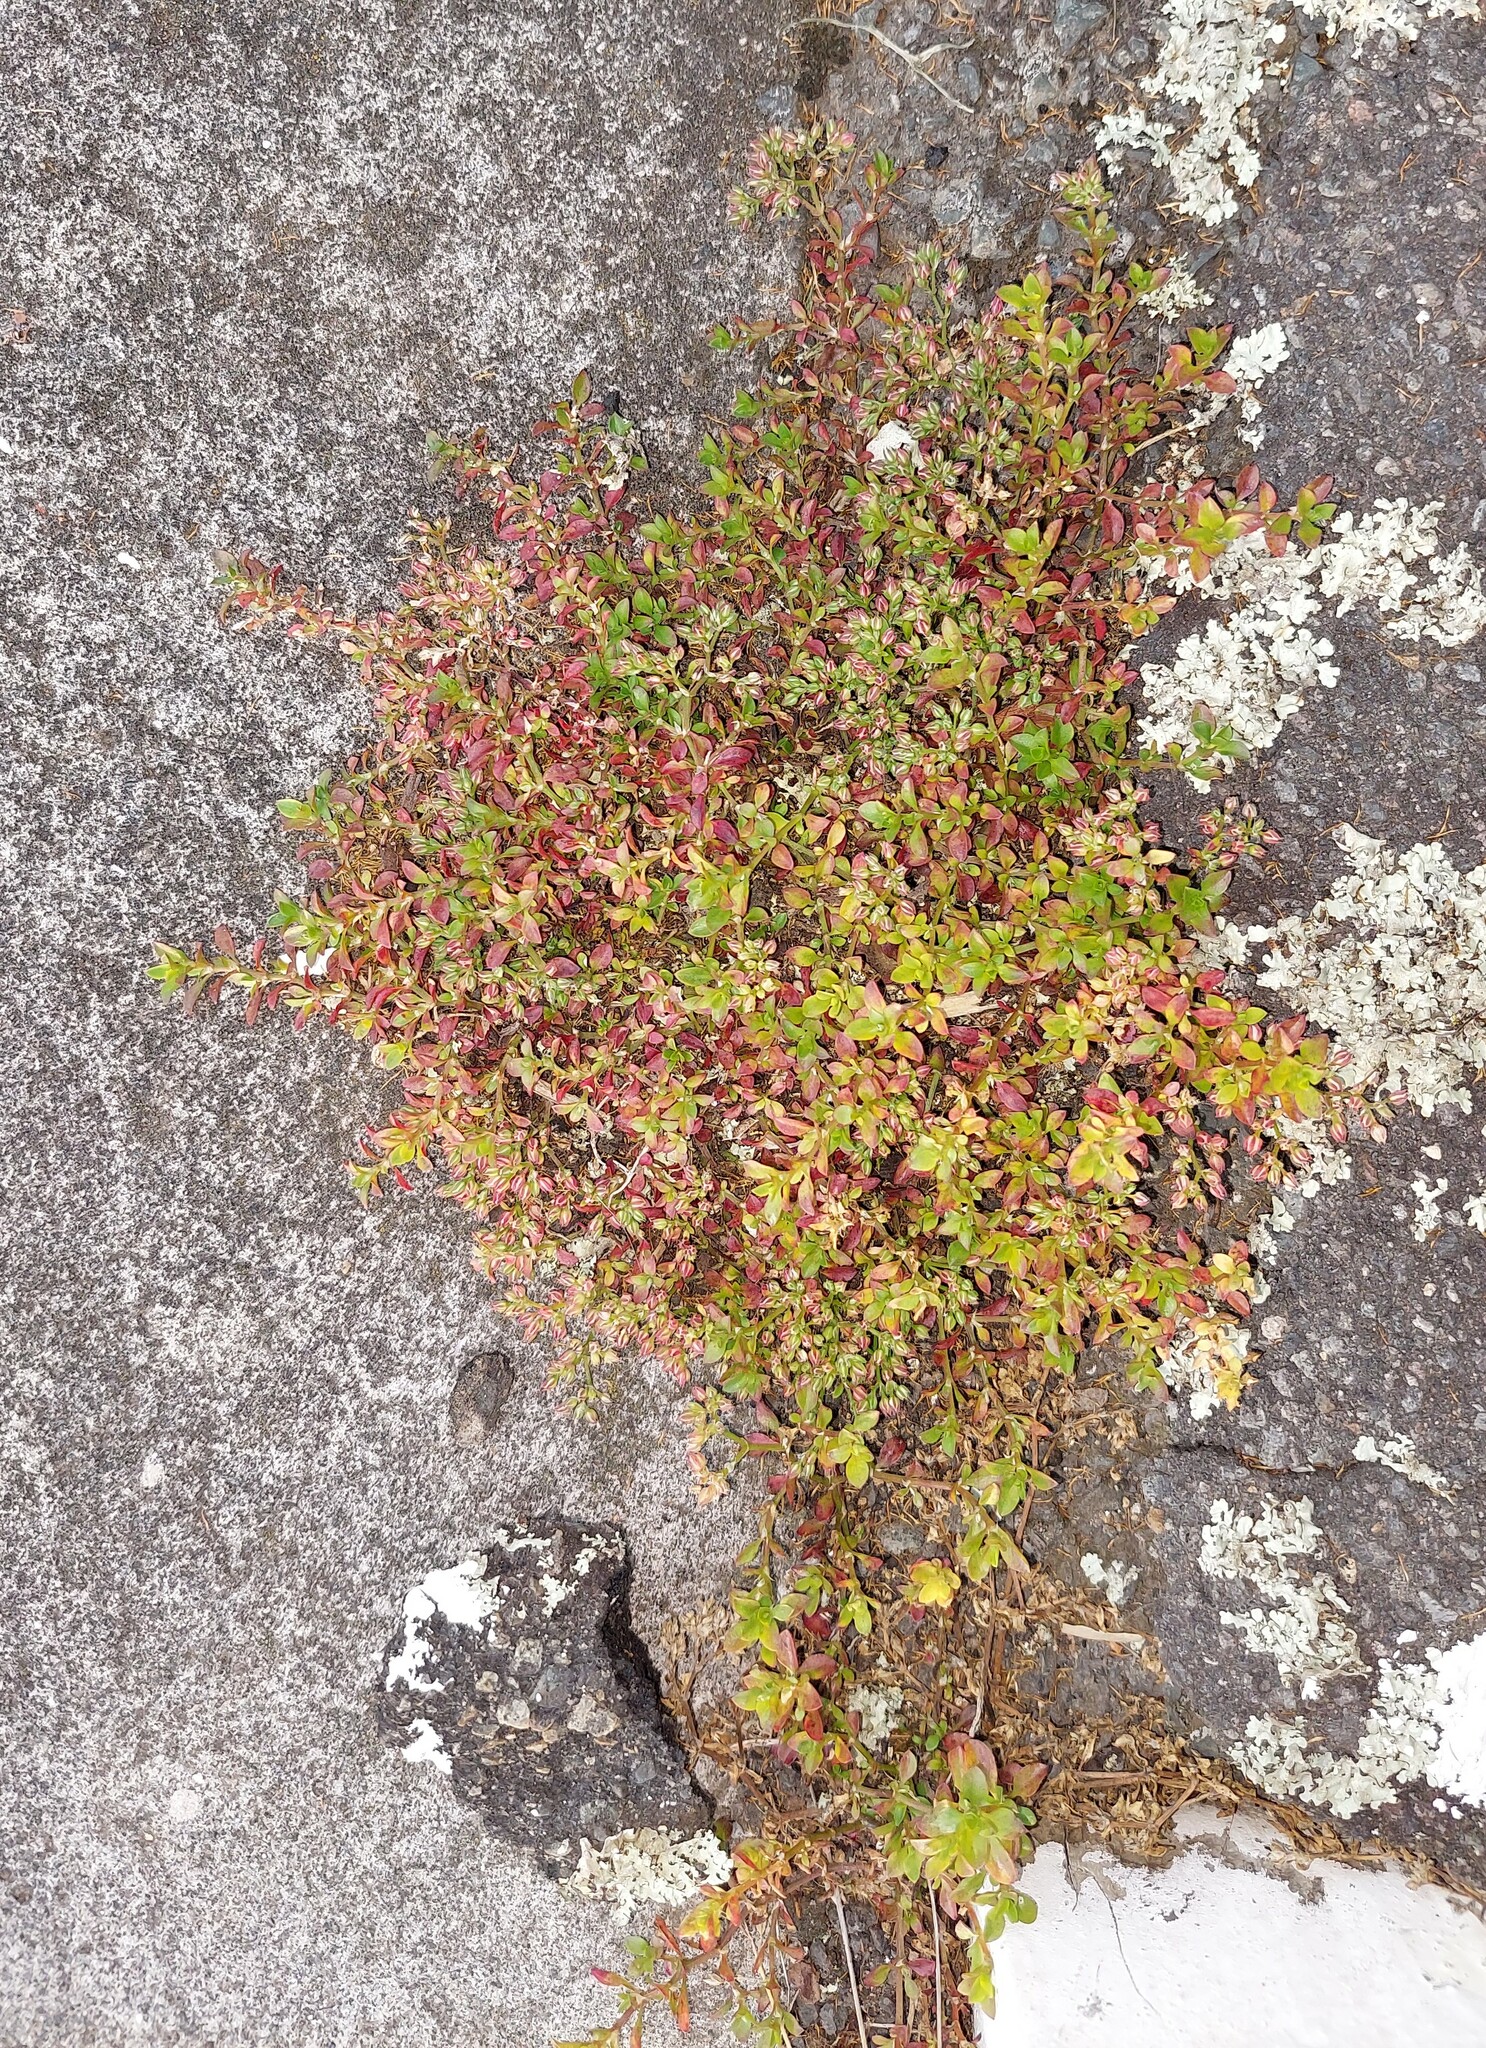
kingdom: Plantae
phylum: Tracheophyta
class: Magnoliopsida
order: Caryophyllales
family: Caryophyllaceae
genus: Polycarpon
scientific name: Polycarpon tetraphyllum
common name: Four-leaved all-seed
